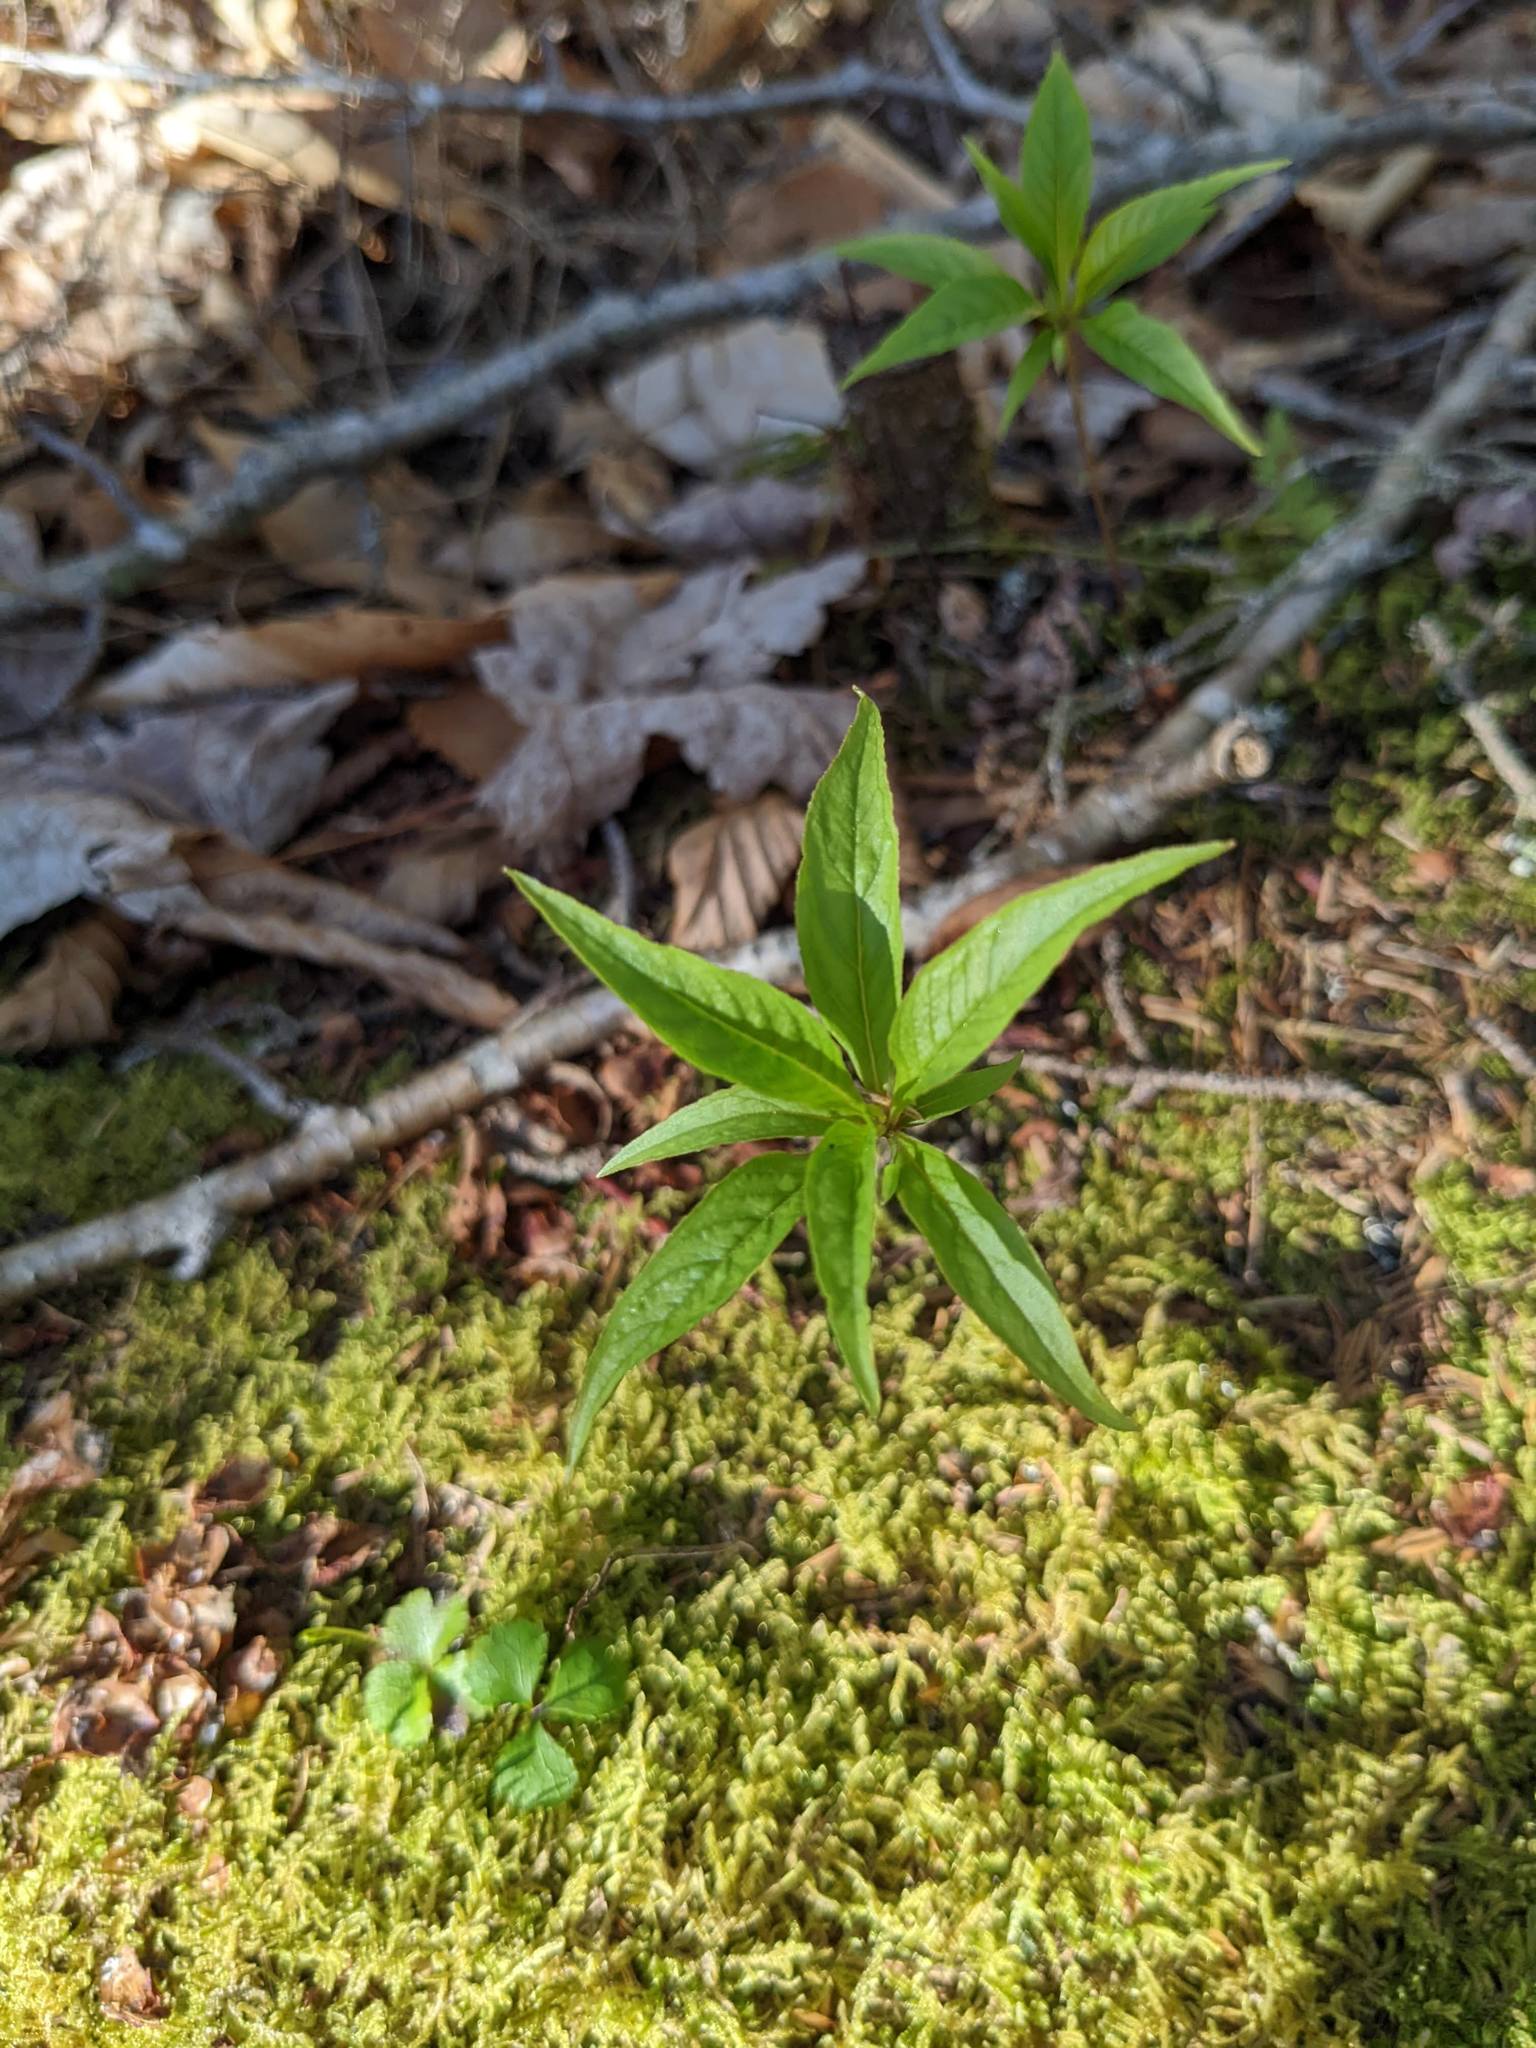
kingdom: Plantae
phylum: Tracheophyta
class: Magnoliopsida
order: Ericales
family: Primulaceae
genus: Lysimachia
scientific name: Lysimachia borealis
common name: American starflower
